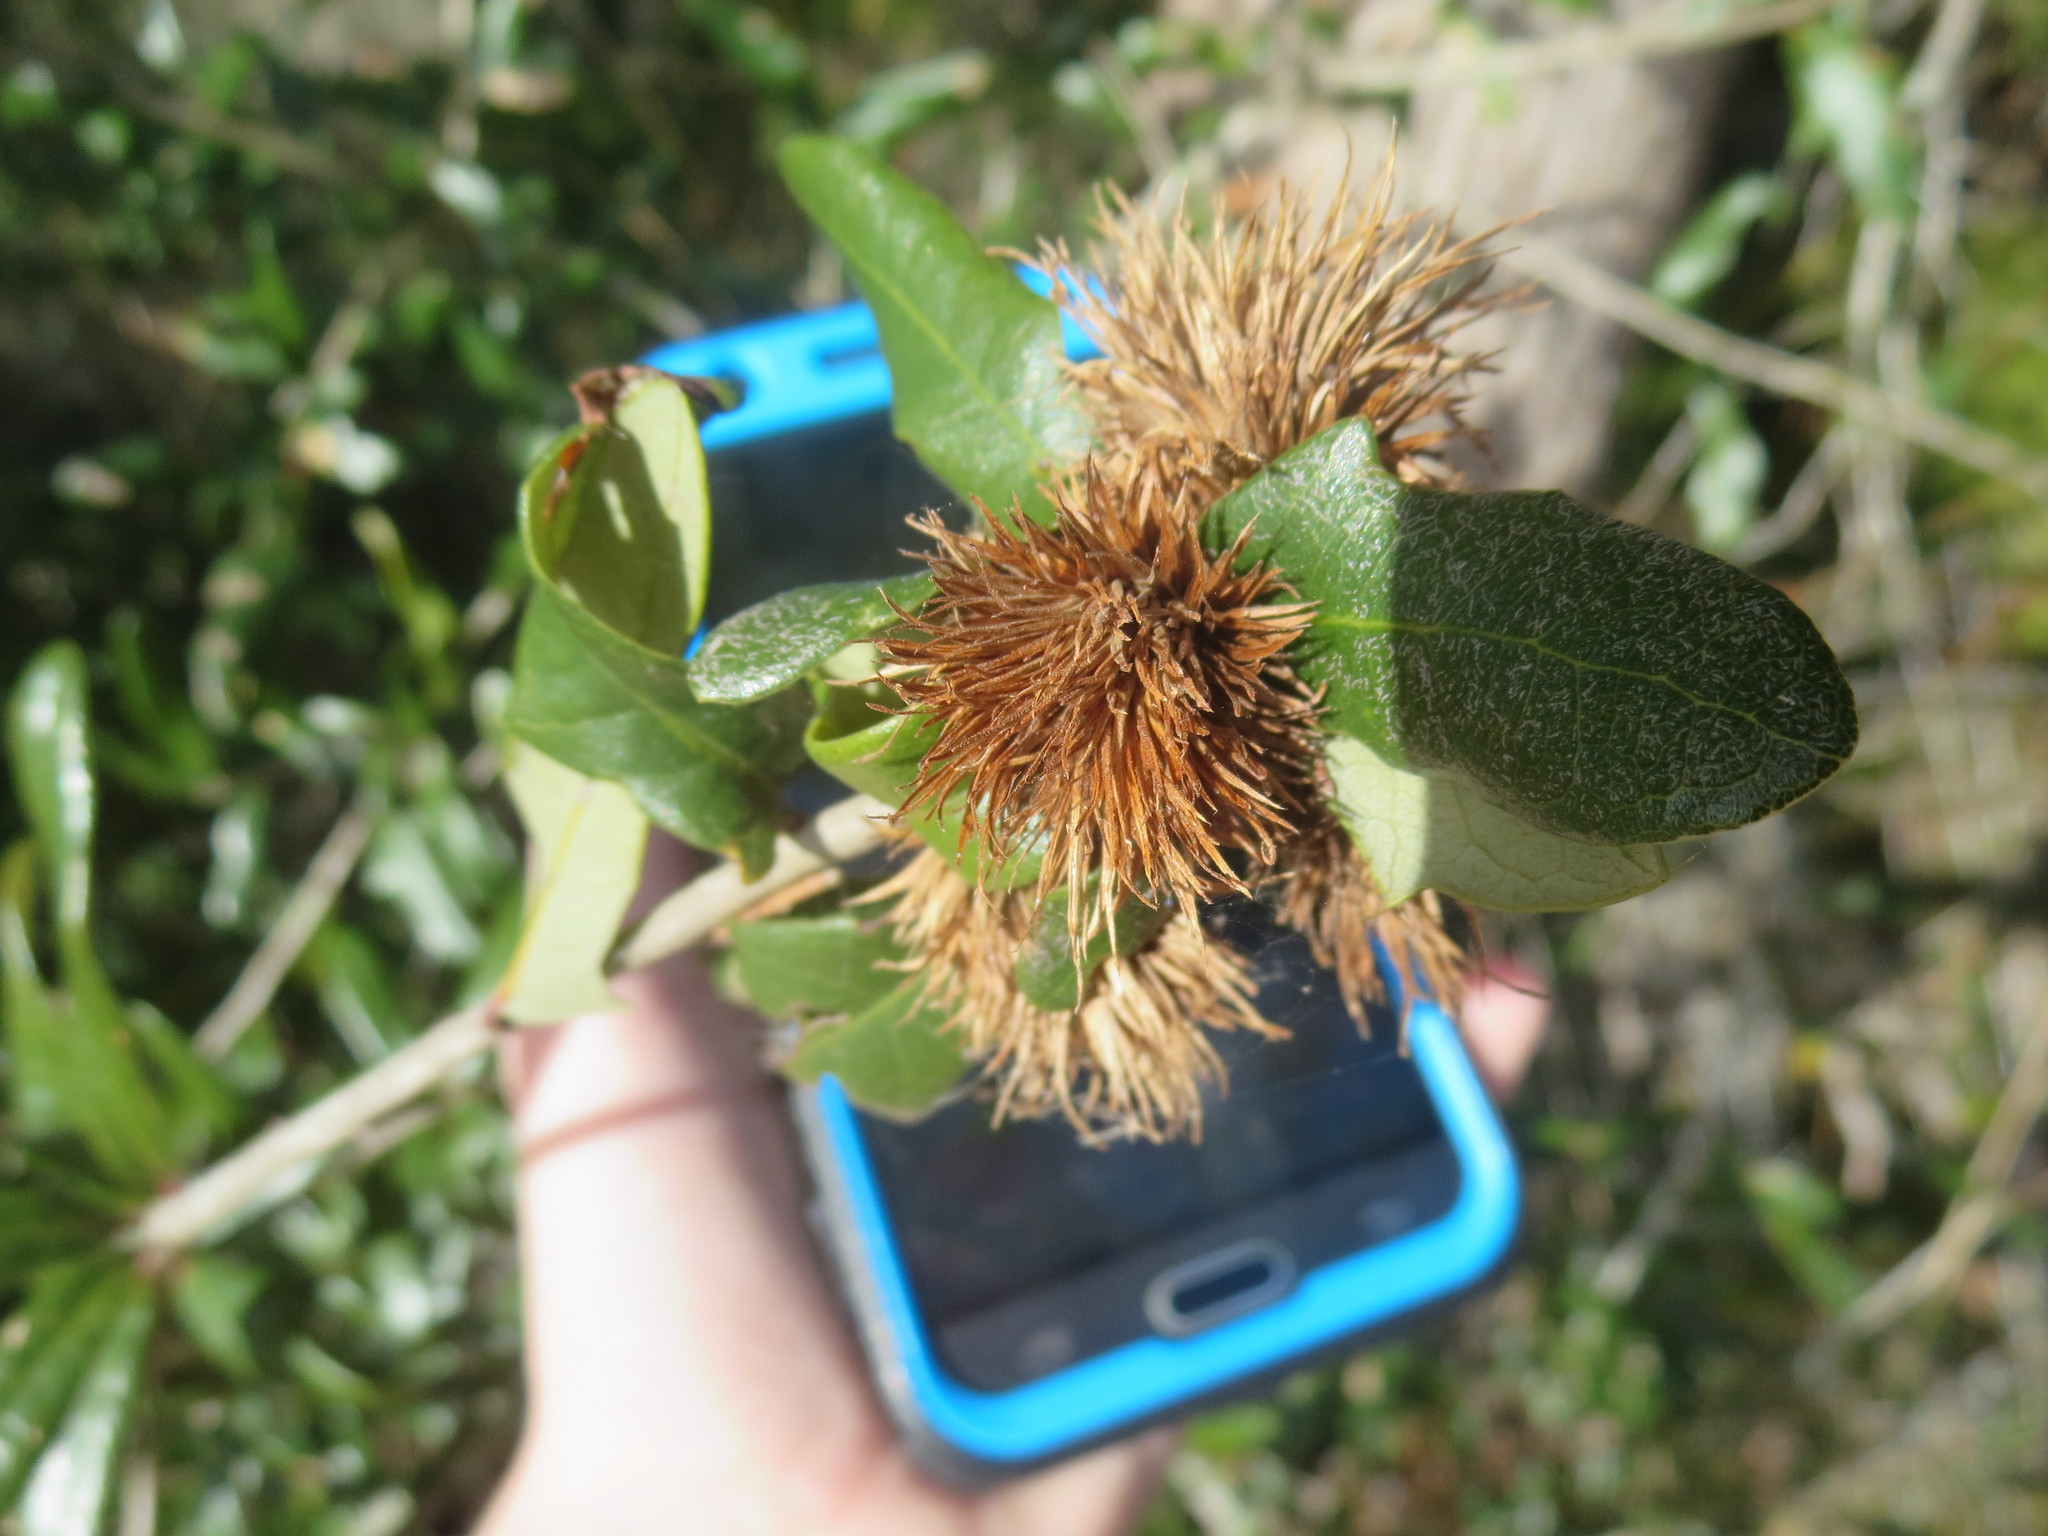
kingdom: Animalia
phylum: Arthropoda
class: Insecta
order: Hymenoptera
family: Cynipidae
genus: Andricus
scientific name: Andricus quercusfoliatus
